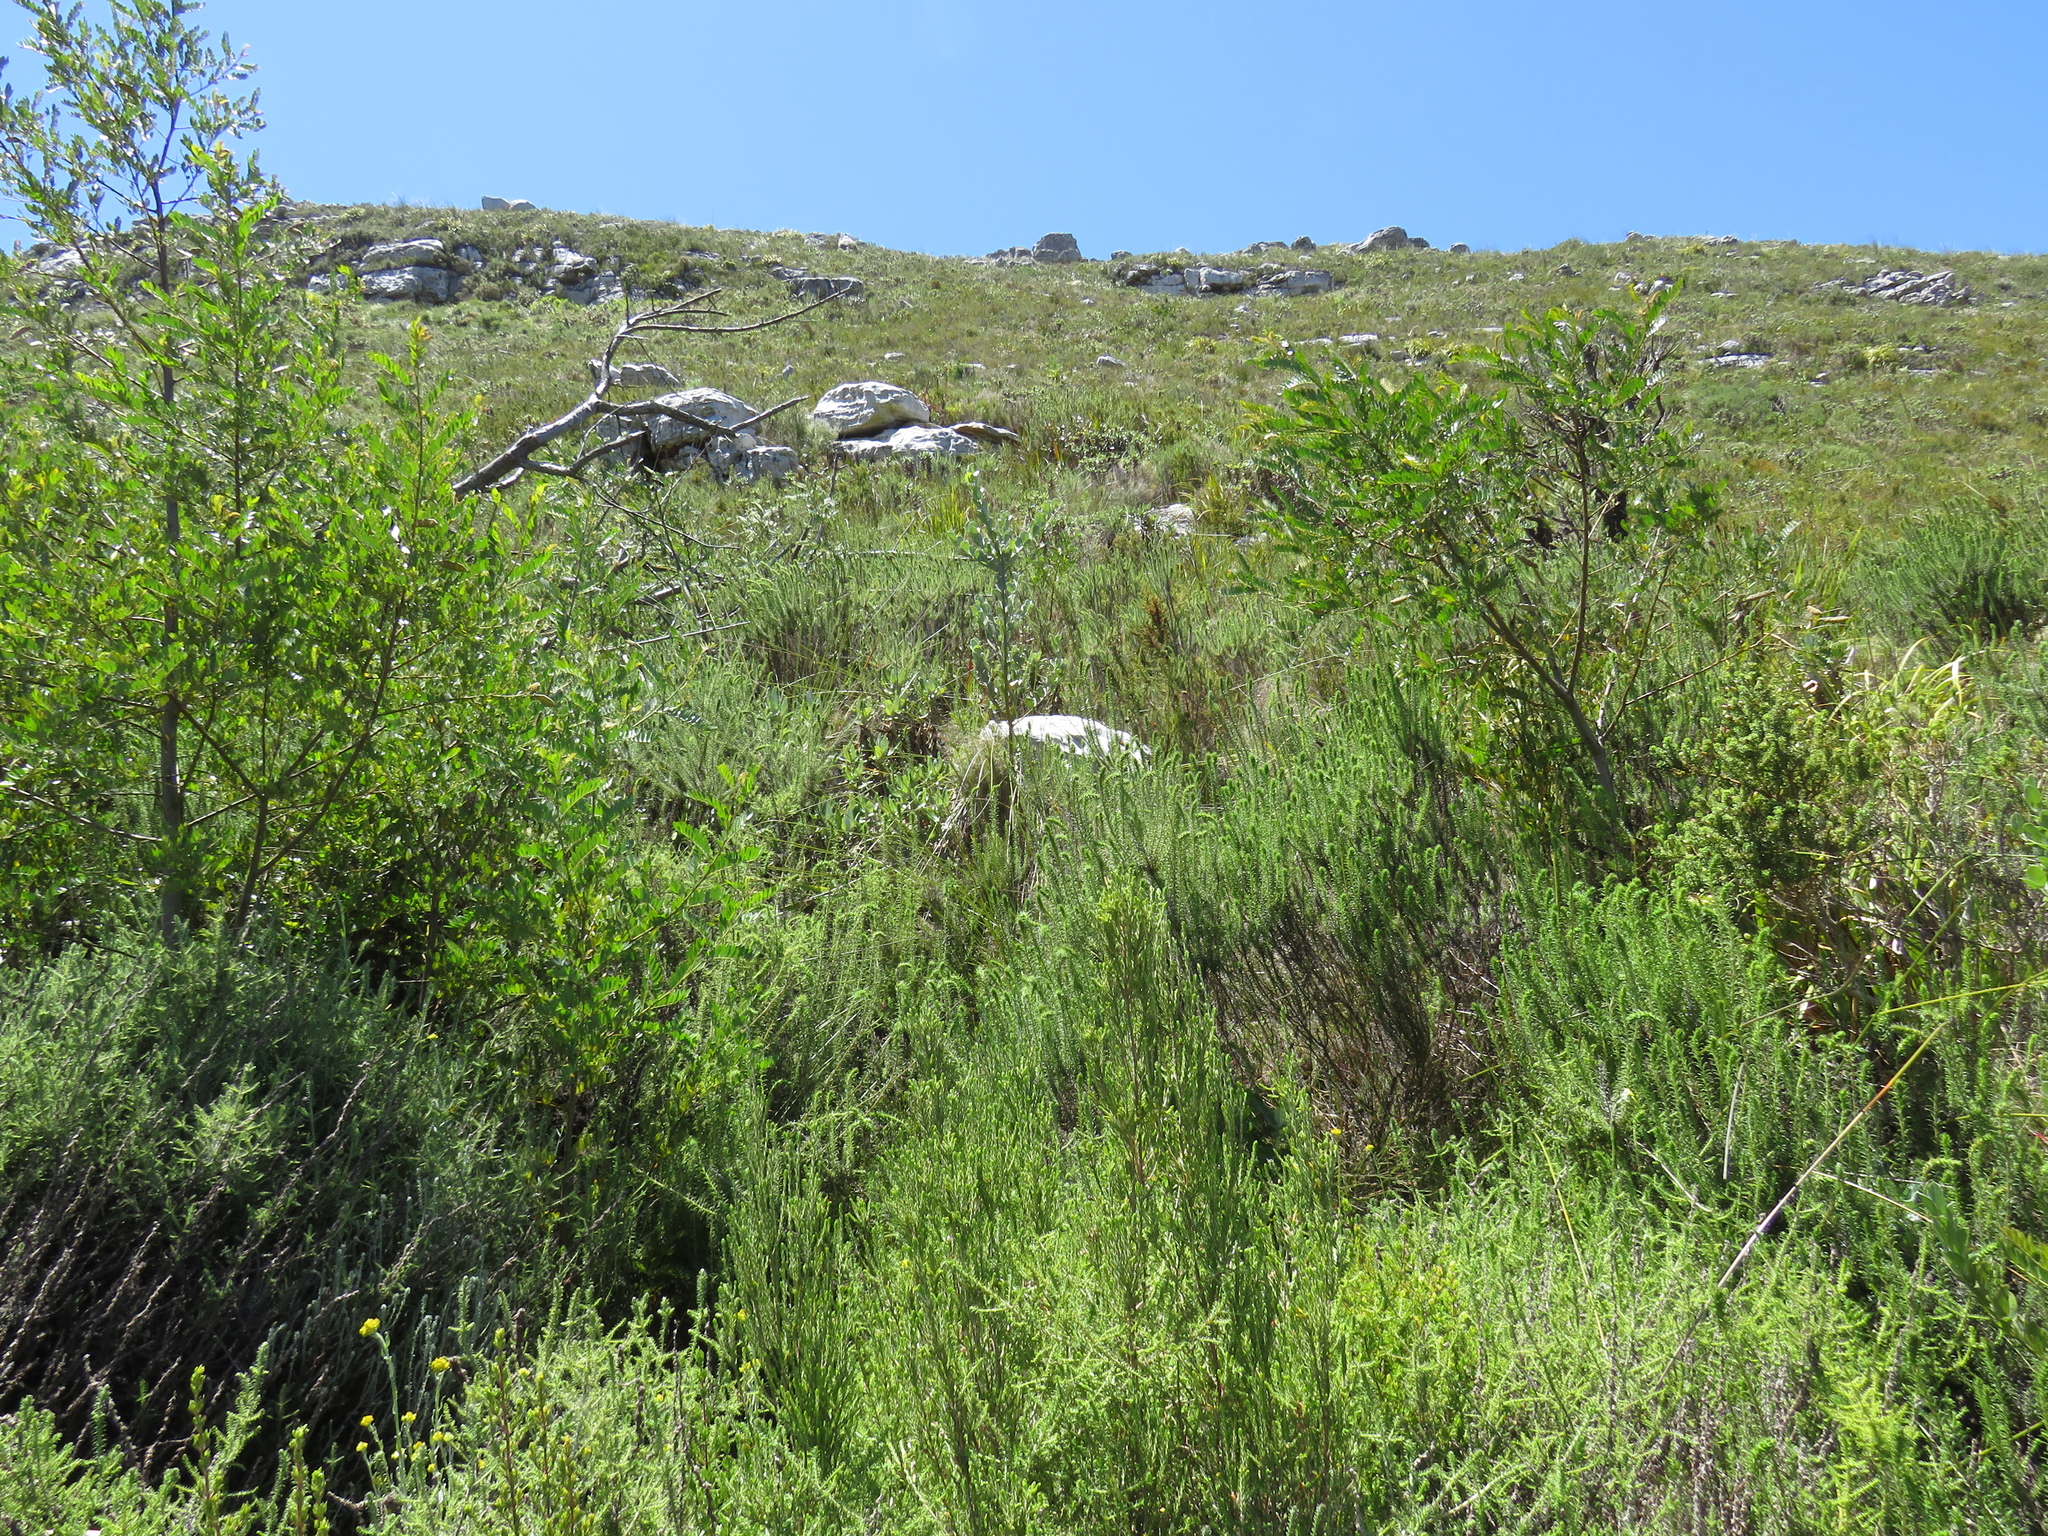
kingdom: Plantae
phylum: Tracheophyta
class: Magnoliopsida
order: Asterales
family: Asteraceae
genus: Myrovernix
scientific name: Myrovernix longifolius
